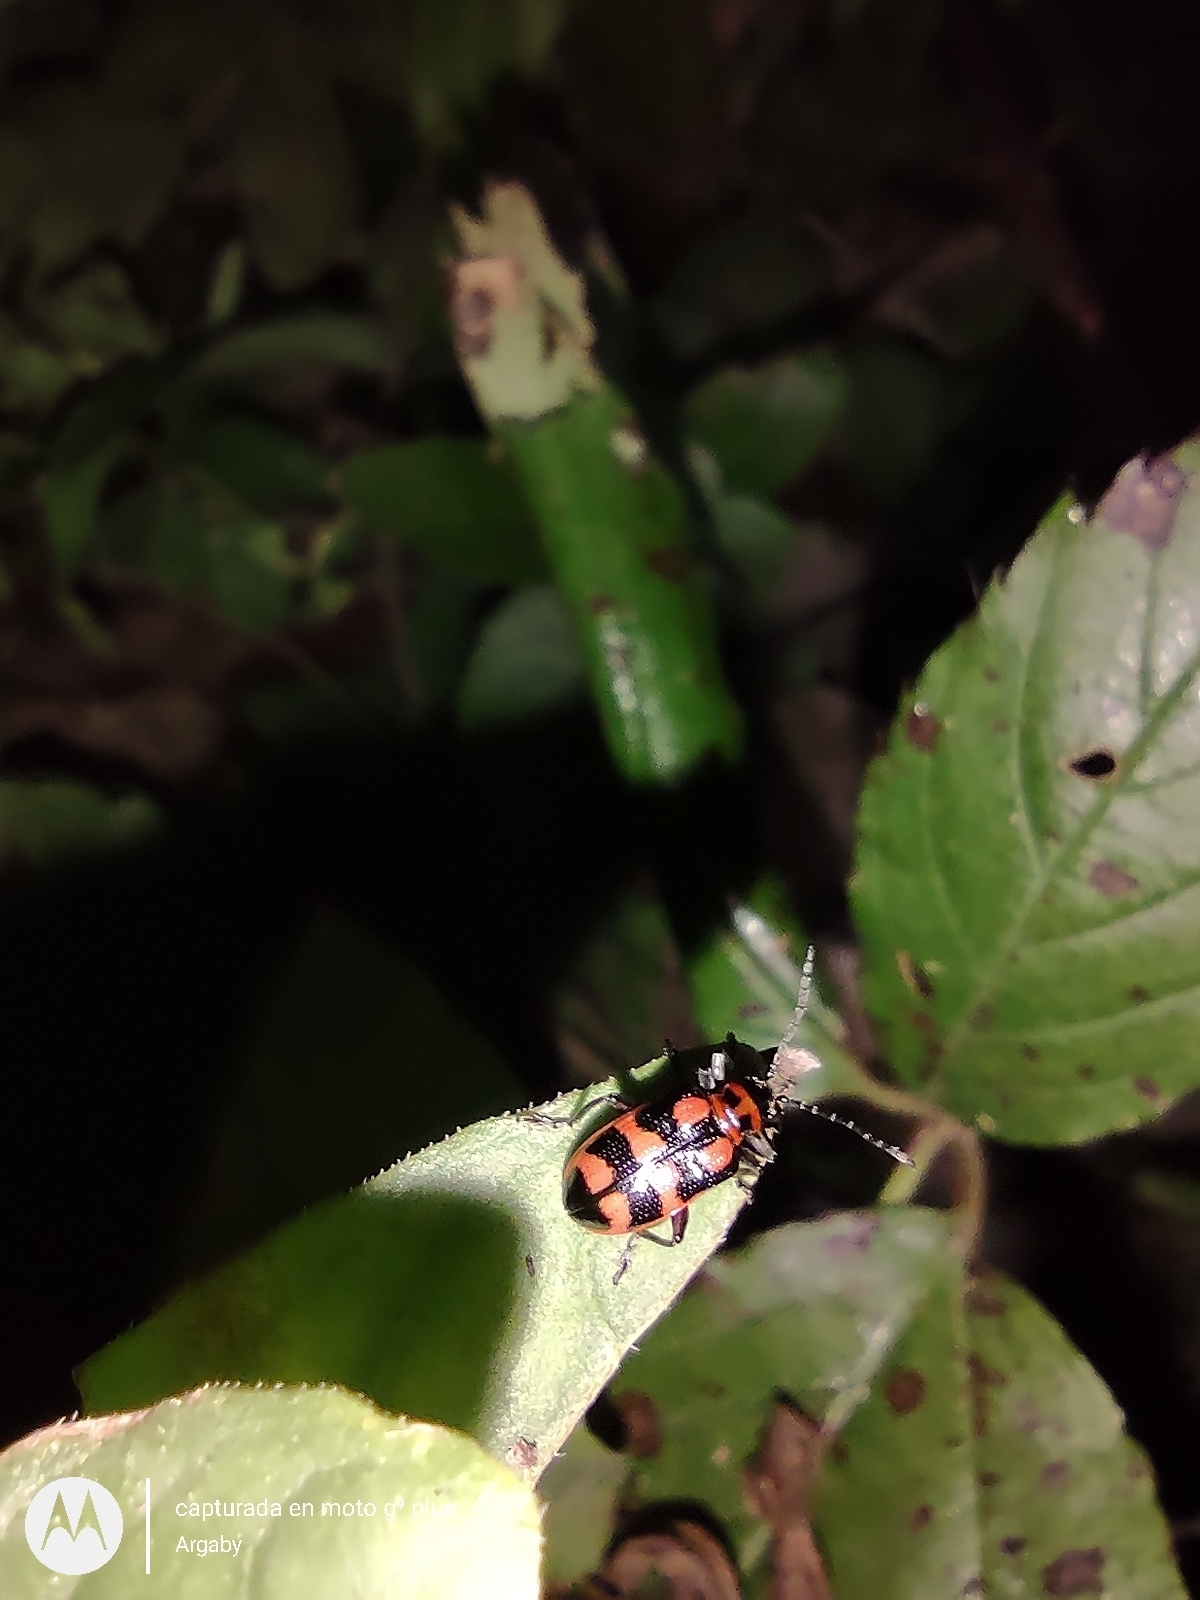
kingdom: Animalia
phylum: Arthropoda
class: Insecta
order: Coleoptera
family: Chrysomelidae
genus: Neolema
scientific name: Neolema
